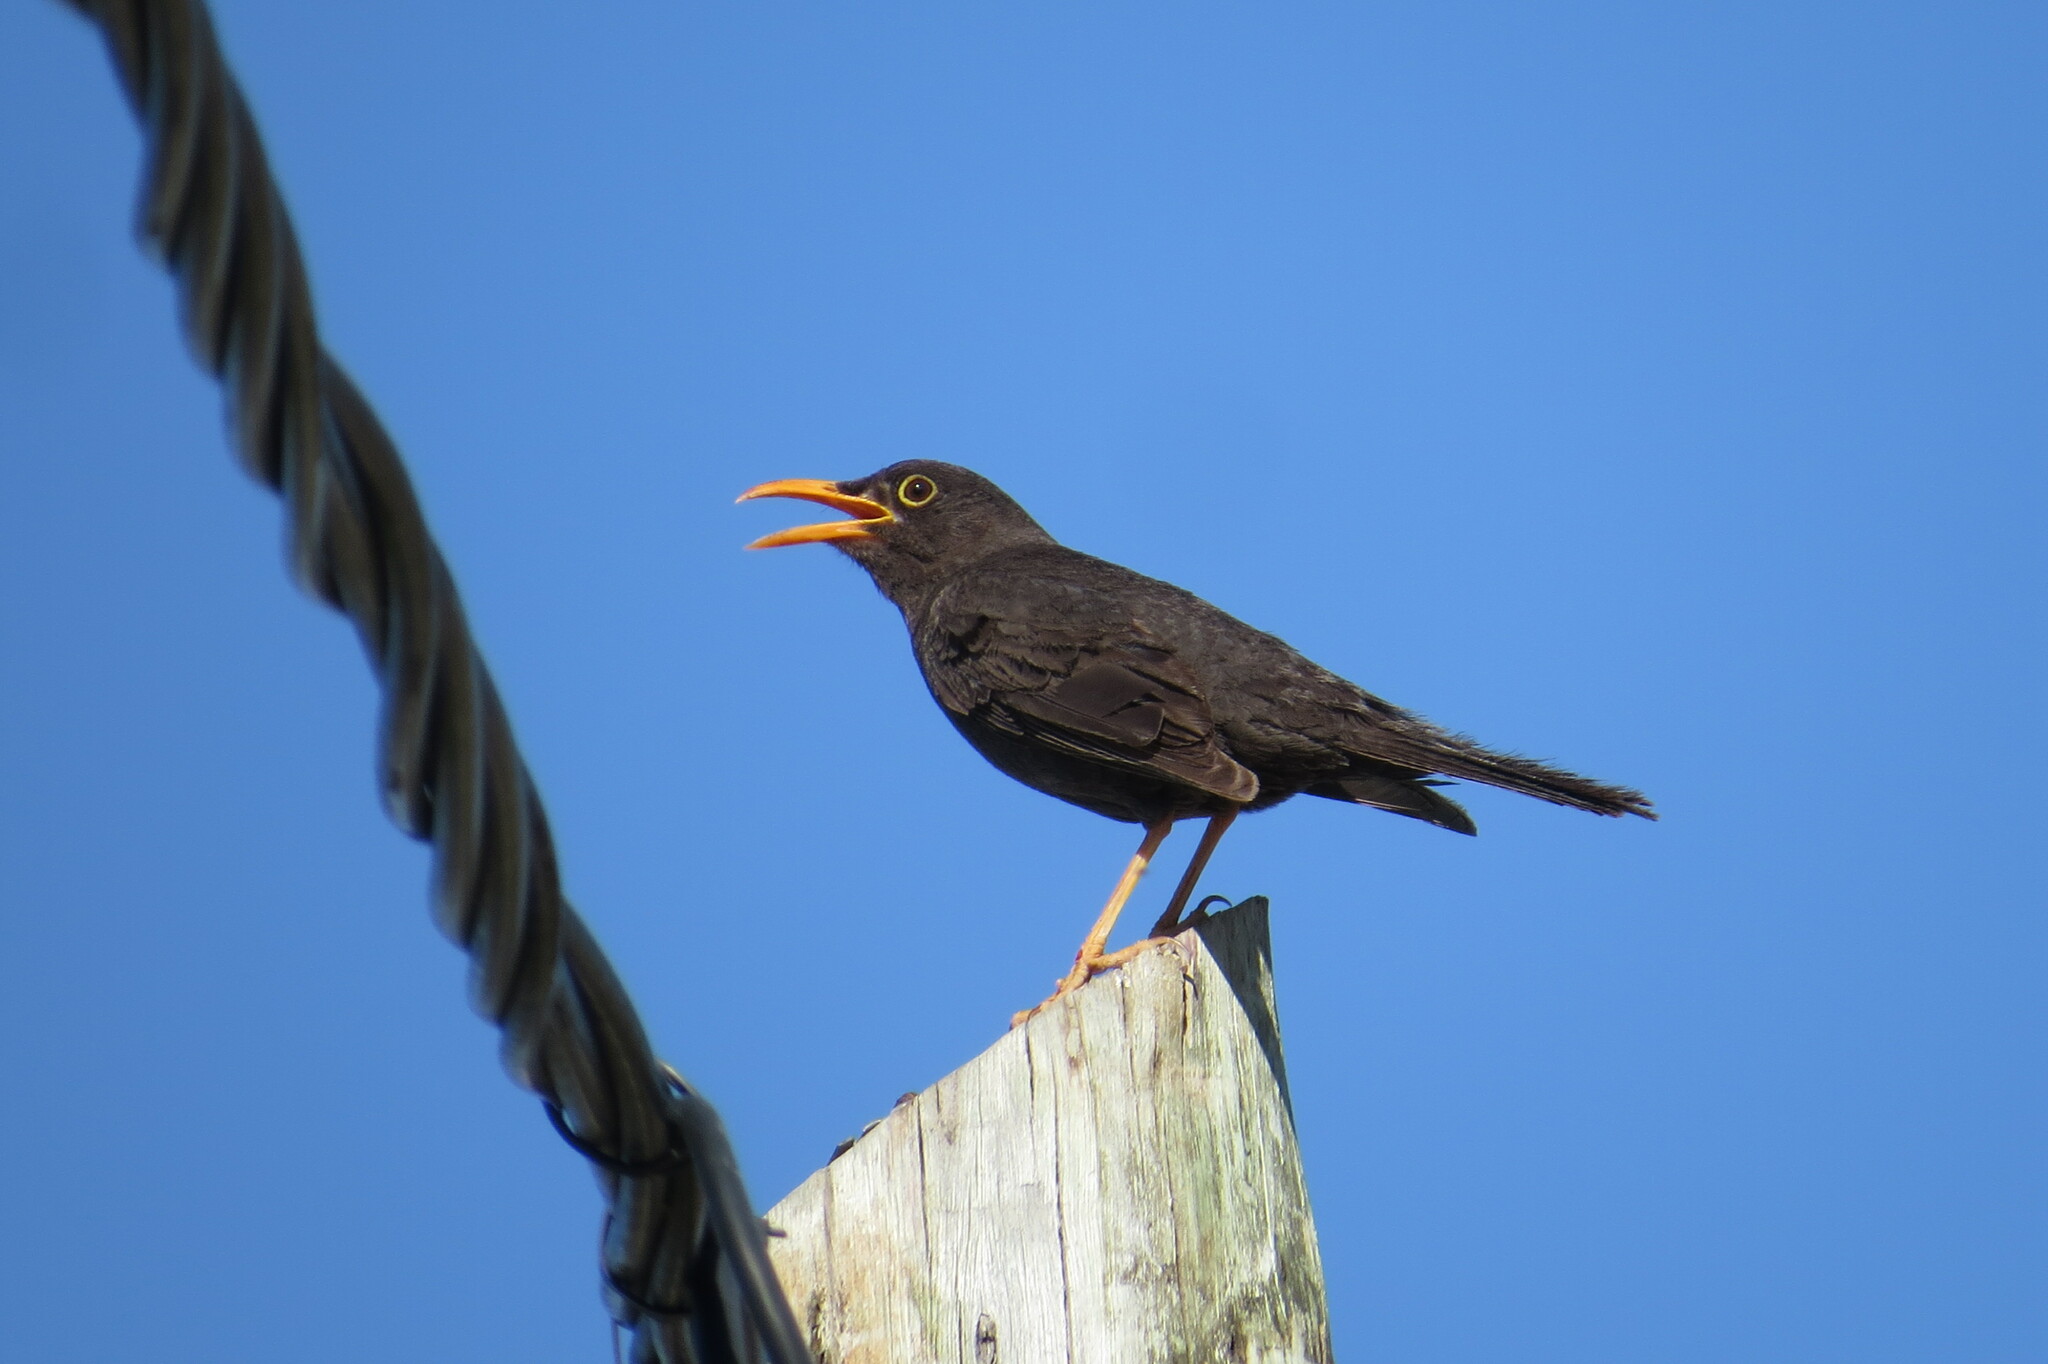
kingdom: Animalia
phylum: Chordata
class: Aves
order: Passeriformes
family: Turdidae
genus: Turdus
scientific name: Turdus chiguanco
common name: Chiguanco thrush
